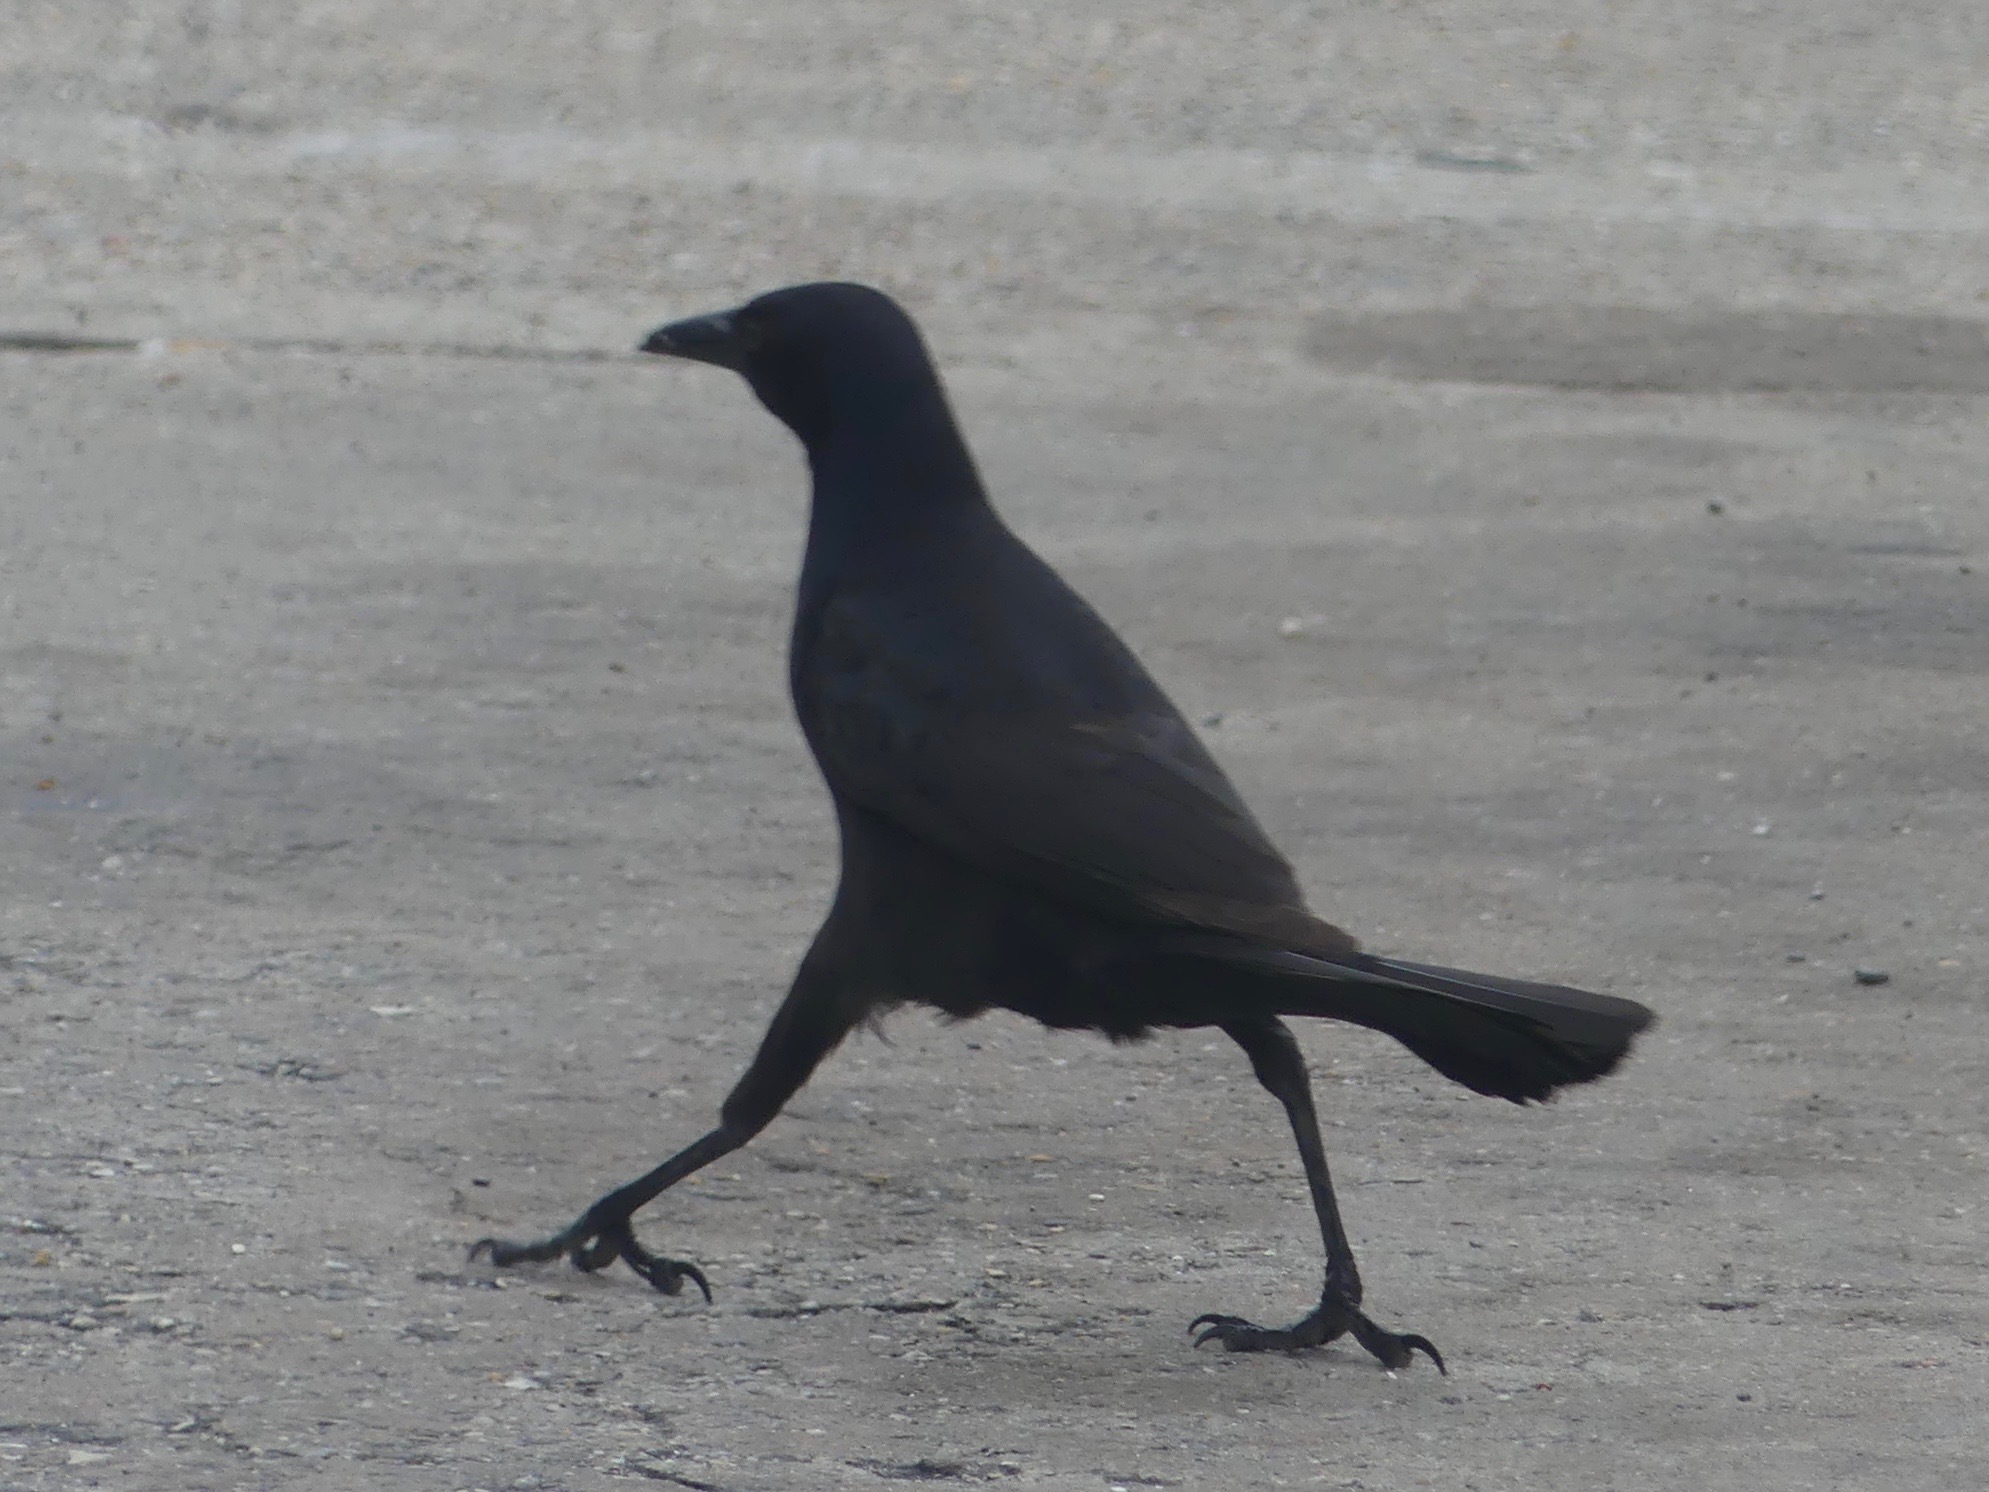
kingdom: Animalia
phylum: Chordata
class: Aves
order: Passeriformes
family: Icteridae
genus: Quiscalus
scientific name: Quiscalus major
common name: Boat-tailed grackle
